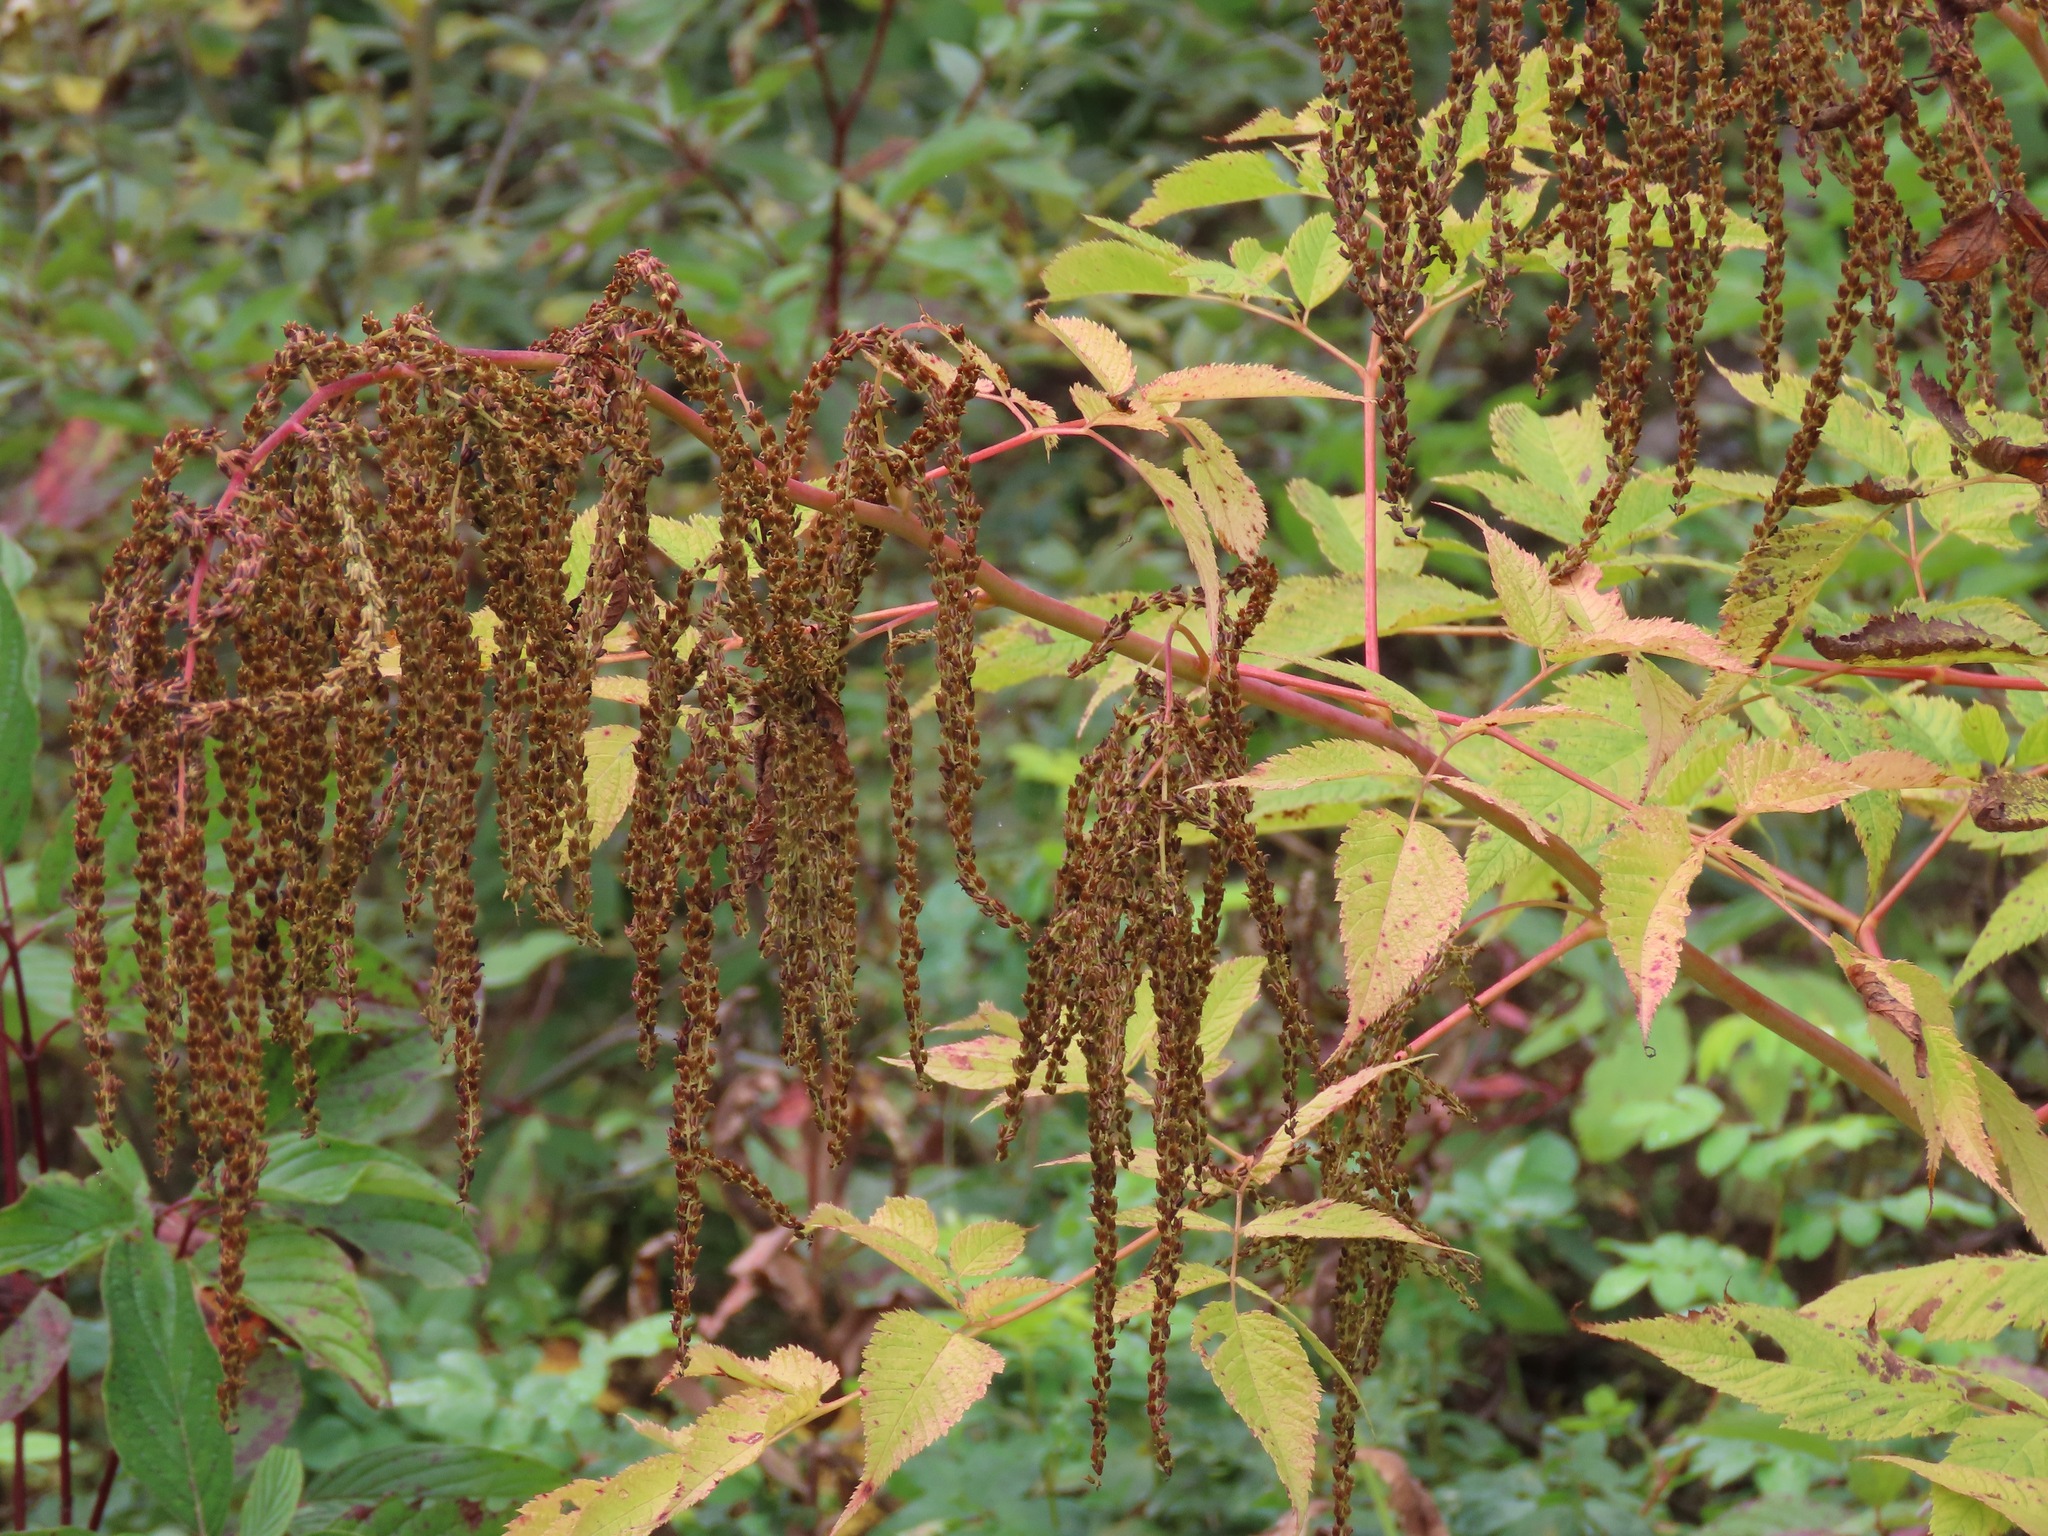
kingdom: Plantae
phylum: Tracheophyta
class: Magnoliopsida
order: Rosales
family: Rosaceae
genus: Aruncus
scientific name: Aruncus dioicus
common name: Buck's-beard
